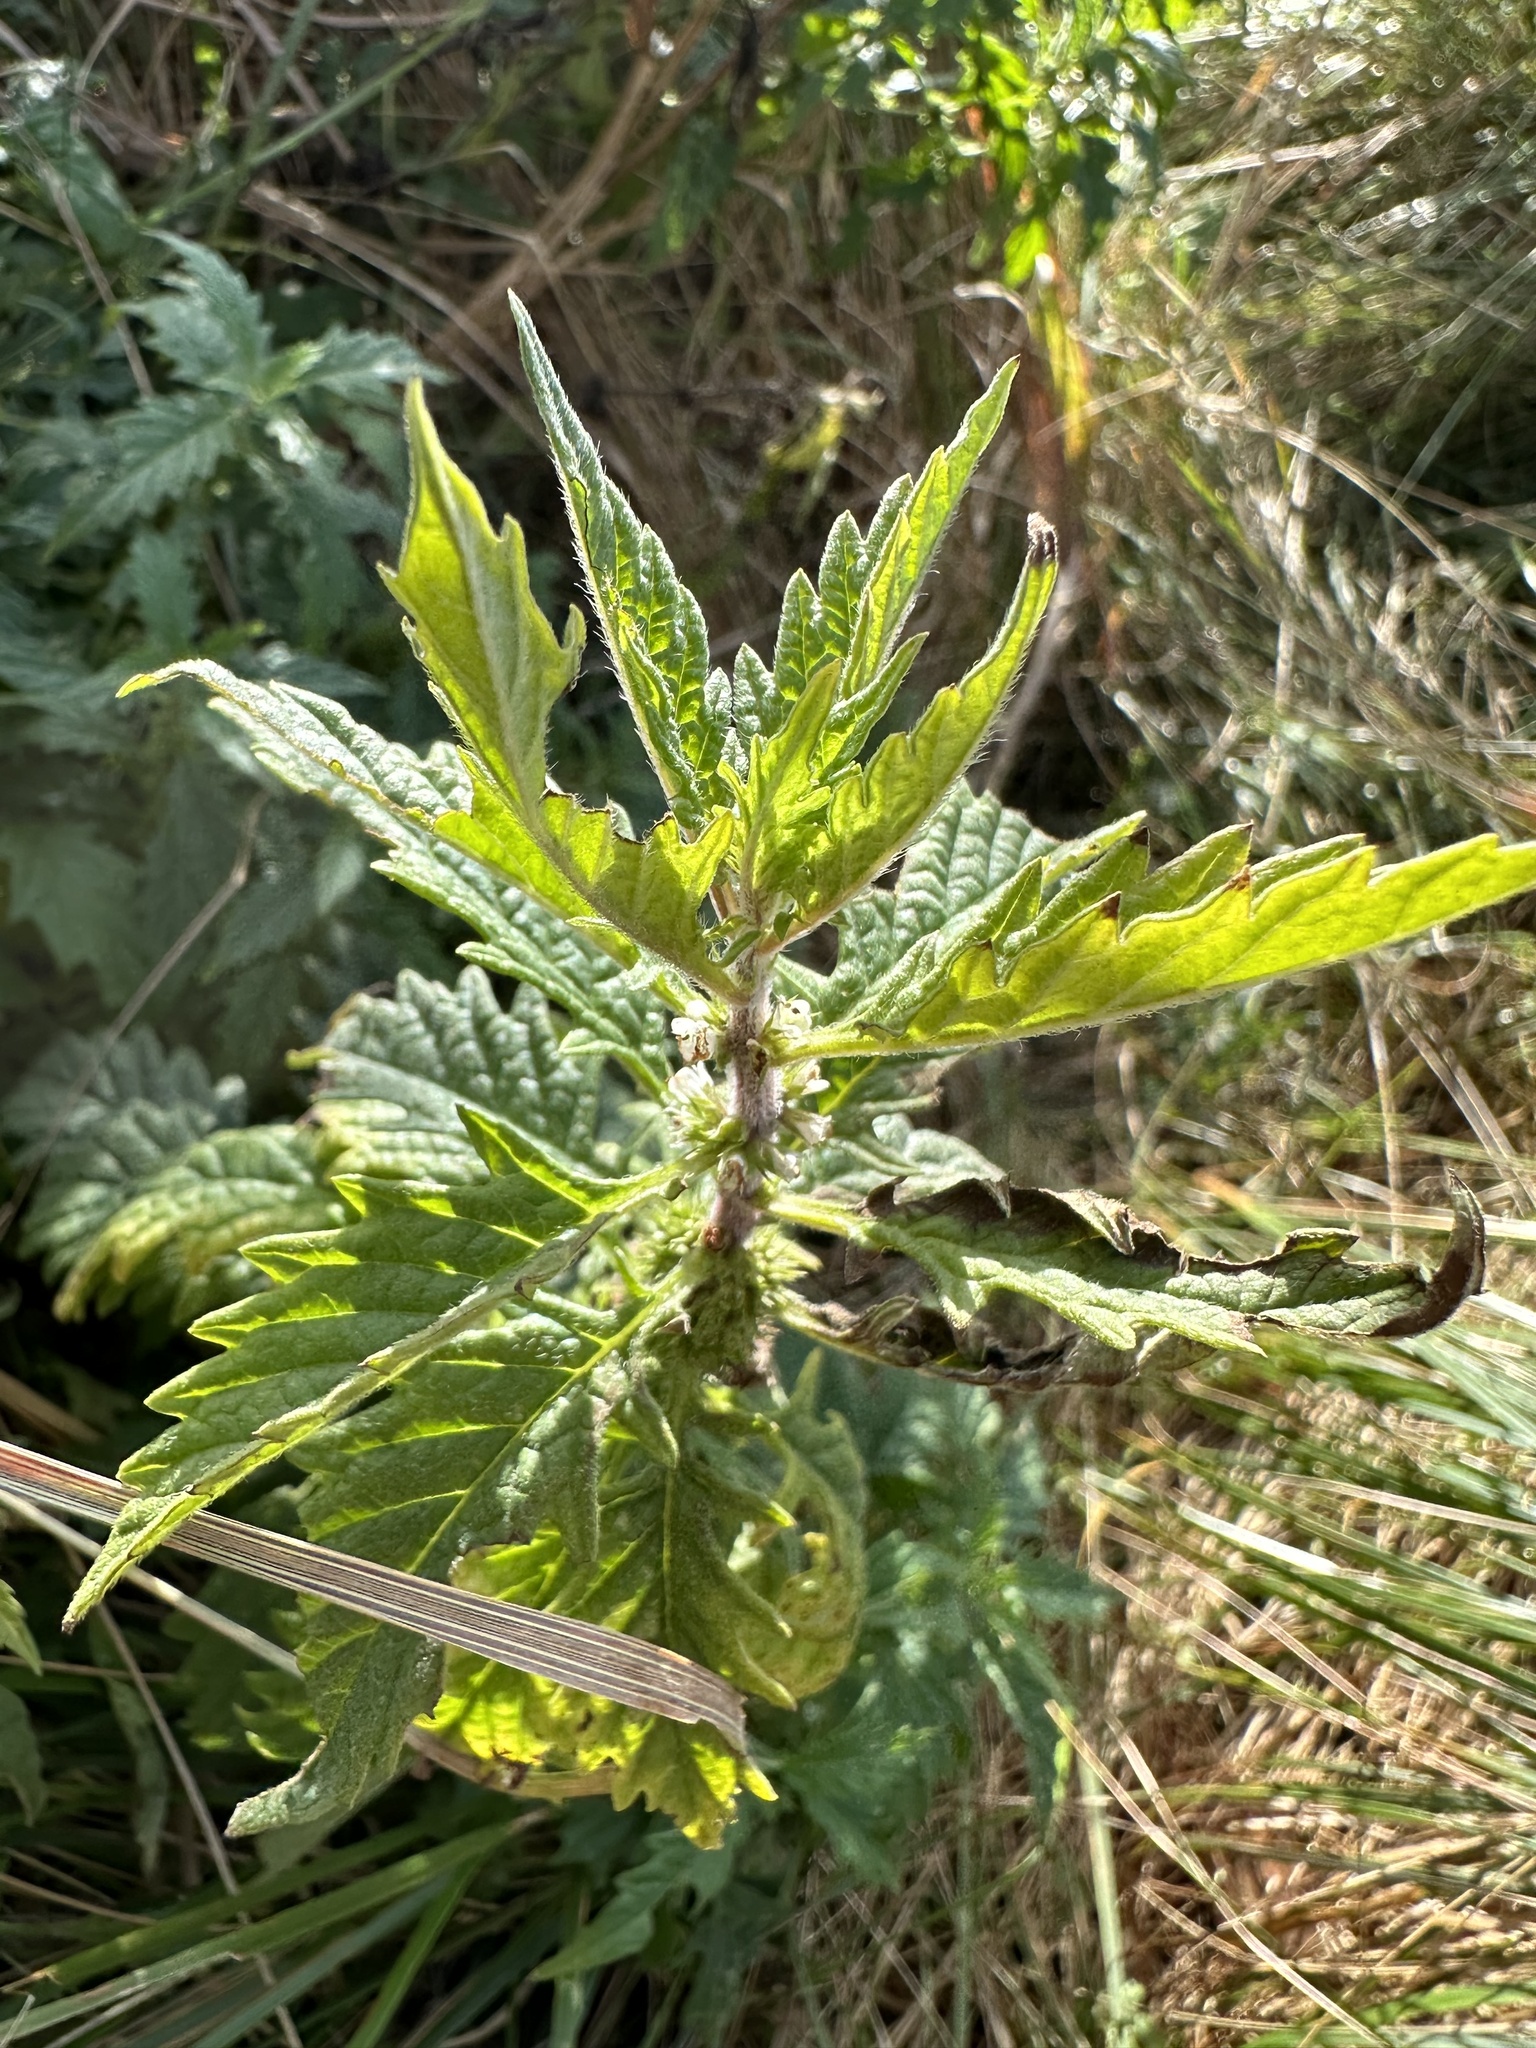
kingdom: Plantae
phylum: Tracheophyta
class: Magnoliopsida
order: Lamiales
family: Lamiaceae
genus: Lycopus
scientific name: Lycopus europaeus
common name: European bugleweed
